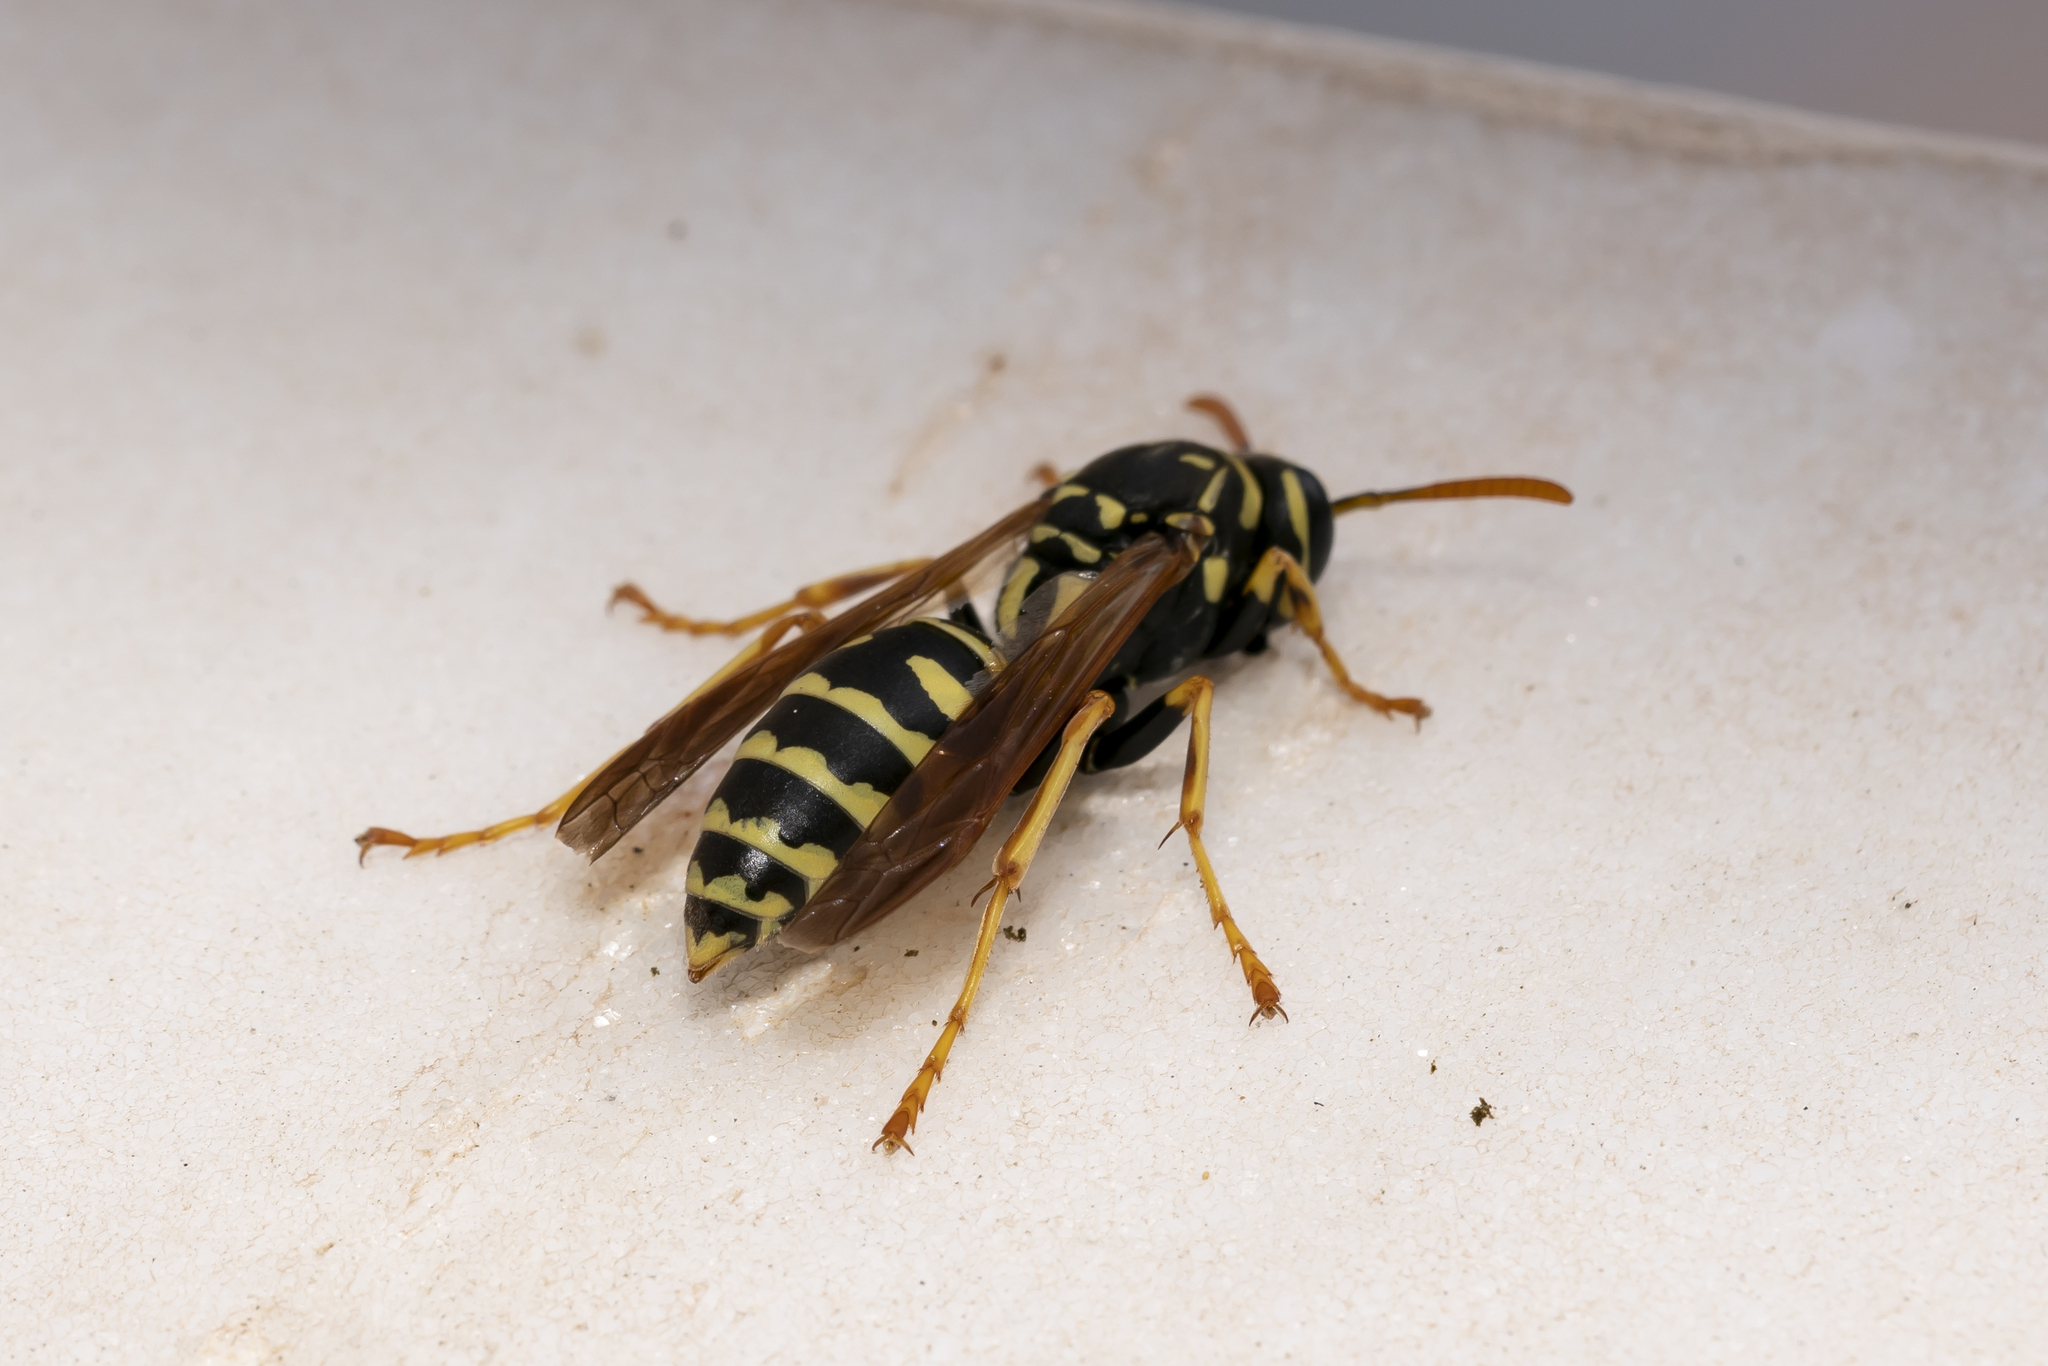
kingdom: Animalia
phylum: Arthropoda
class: Insecta
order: Hymenoptera
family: Eumenidae
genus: Polistes
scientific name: Polistes dominula
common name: Paper wasp
